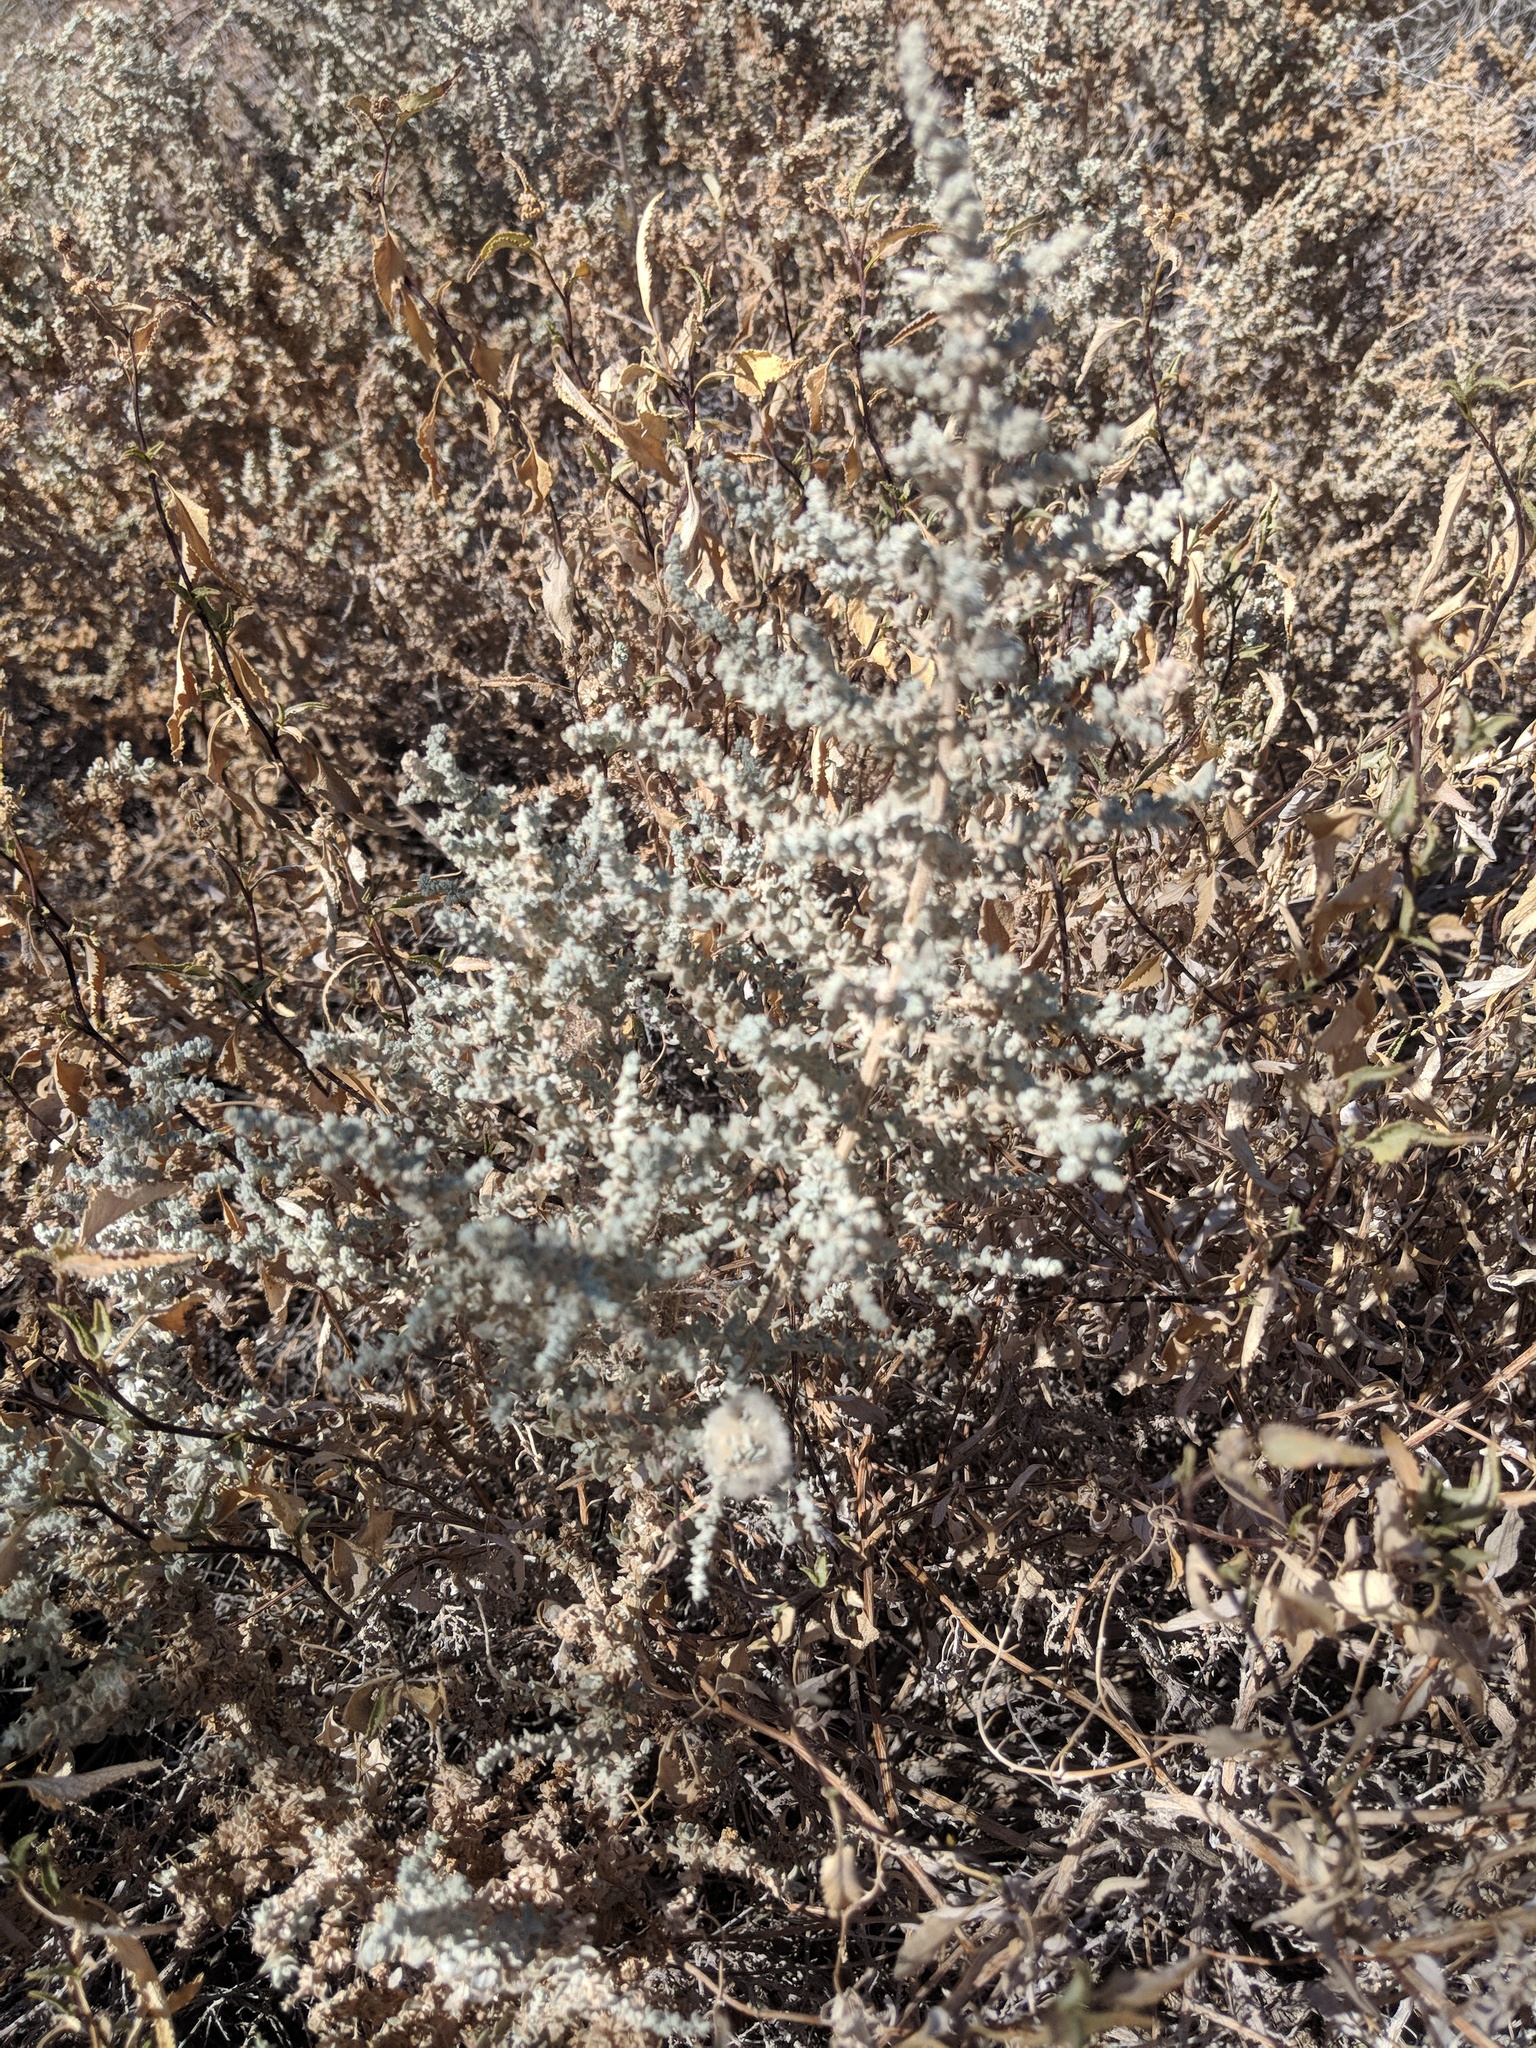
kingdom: Plantae
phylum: Tracheophyta
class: Magnoliopsida
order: Caryophyllales
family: Amaranthaceae
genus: Atriplex
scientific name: Atriplex lentiformis
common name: Big saltbush
